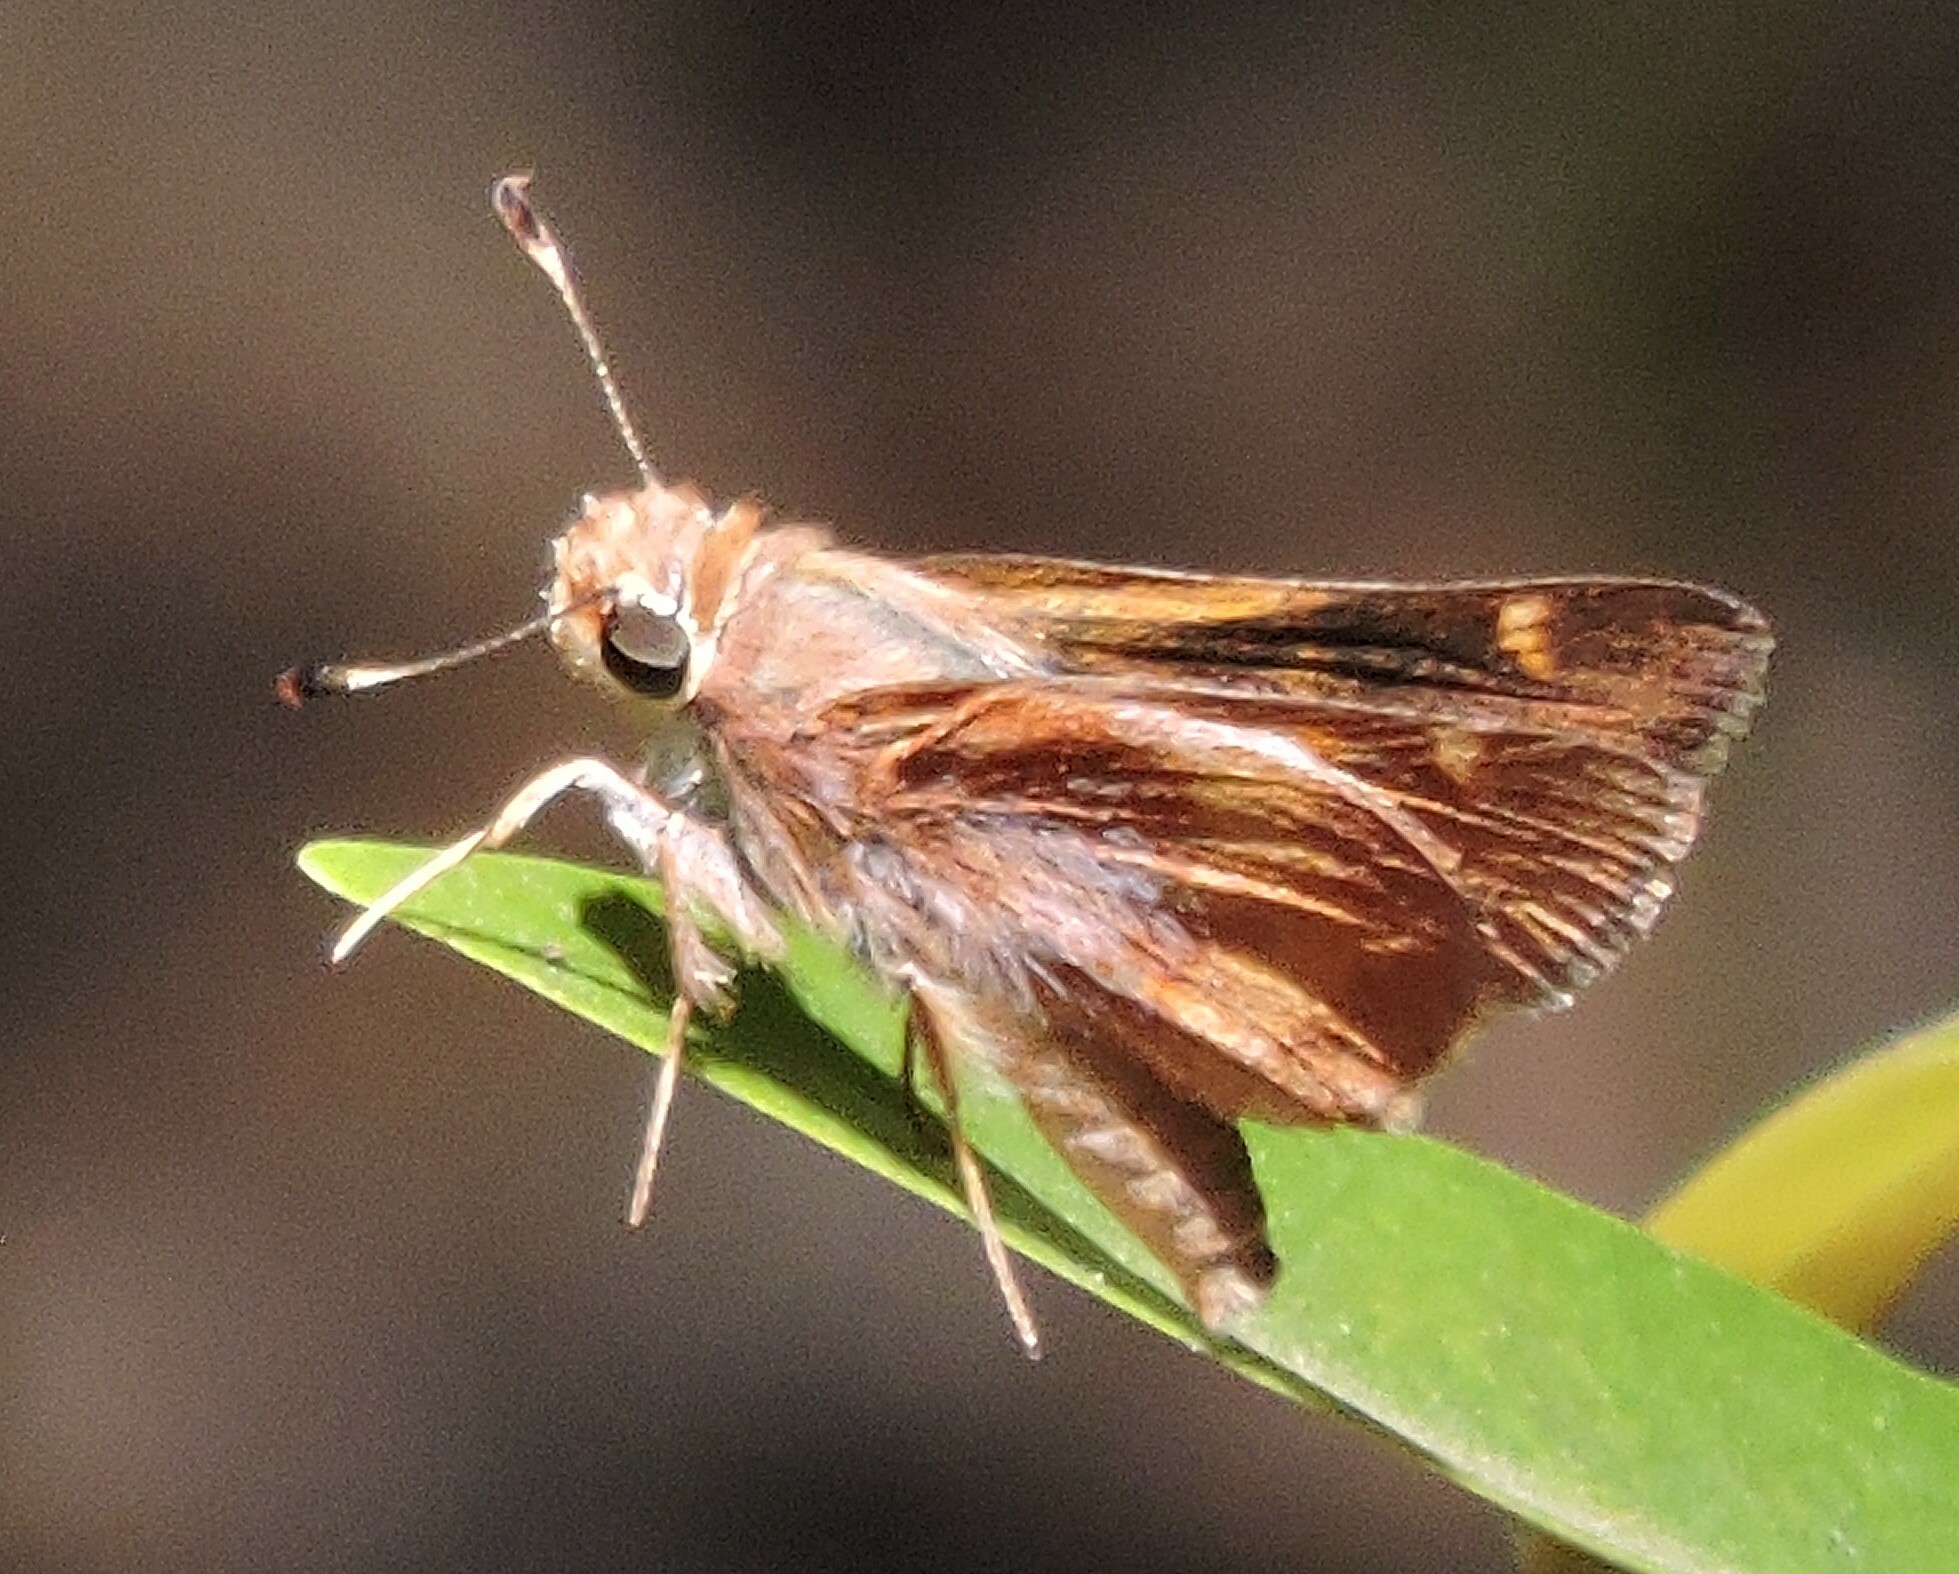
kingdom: Animalia
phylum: Arthropoda
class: Insecta
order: Lepidoptera
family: Hesperiidae
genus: Lon
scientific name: Lon melane
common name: Umber skipper
